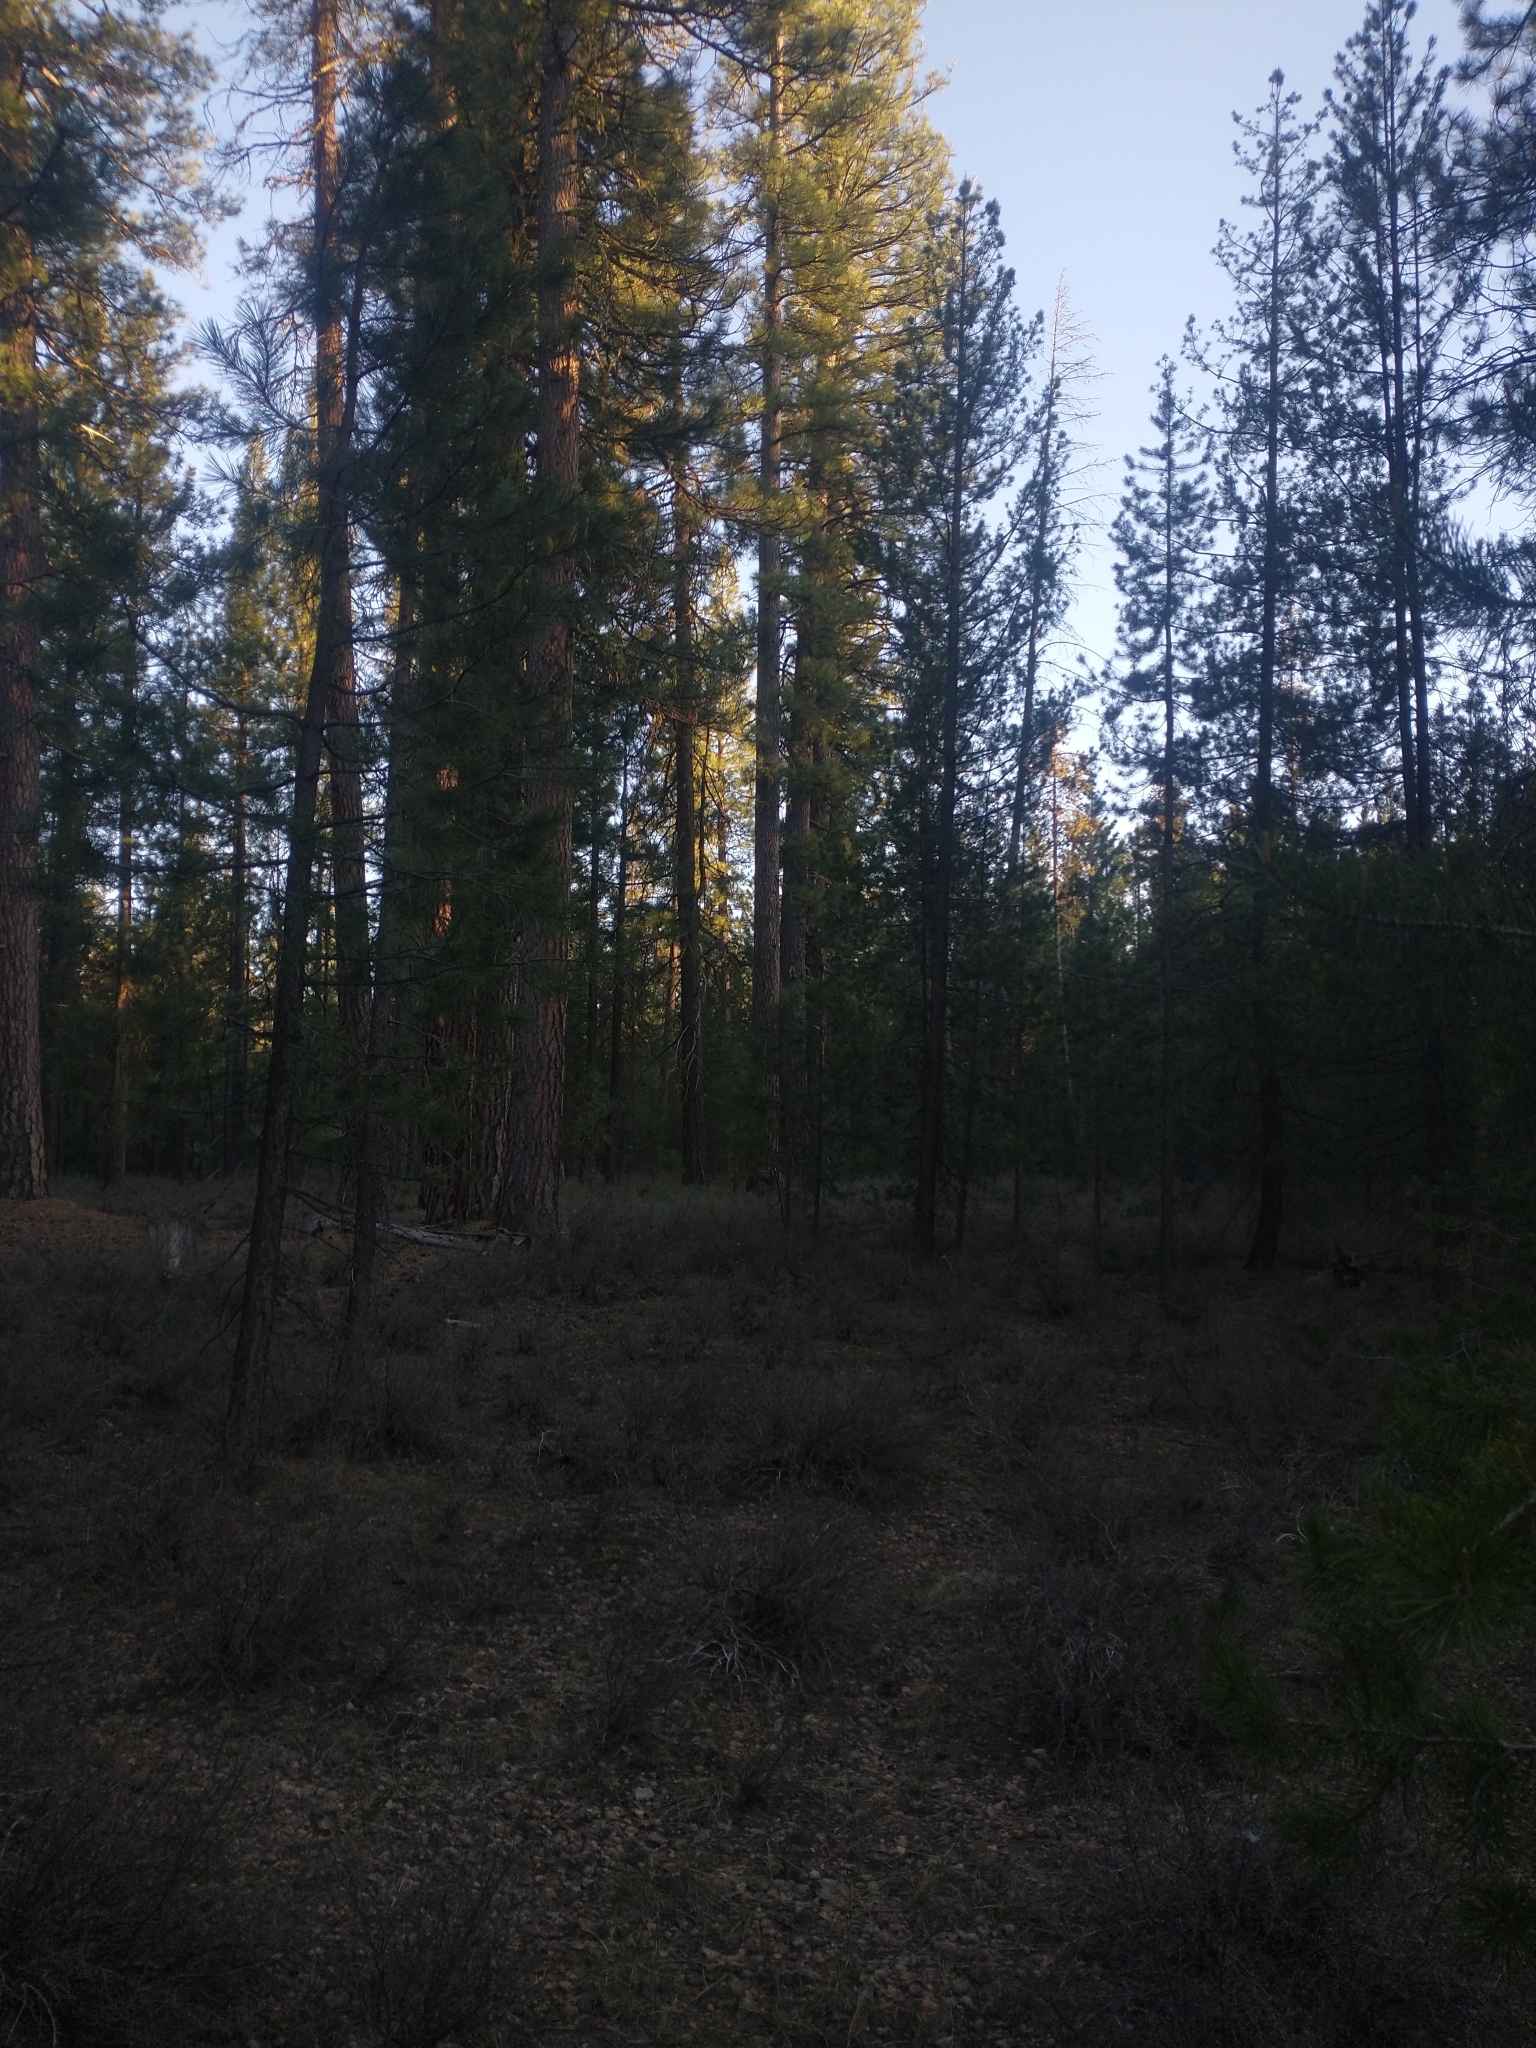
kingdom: Plantae
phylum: Tracheophyta
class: Pinopsida
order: Pinales
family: Pinaceae
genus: Pinus
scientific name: Pinus contorta
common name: Lodgepole pine
